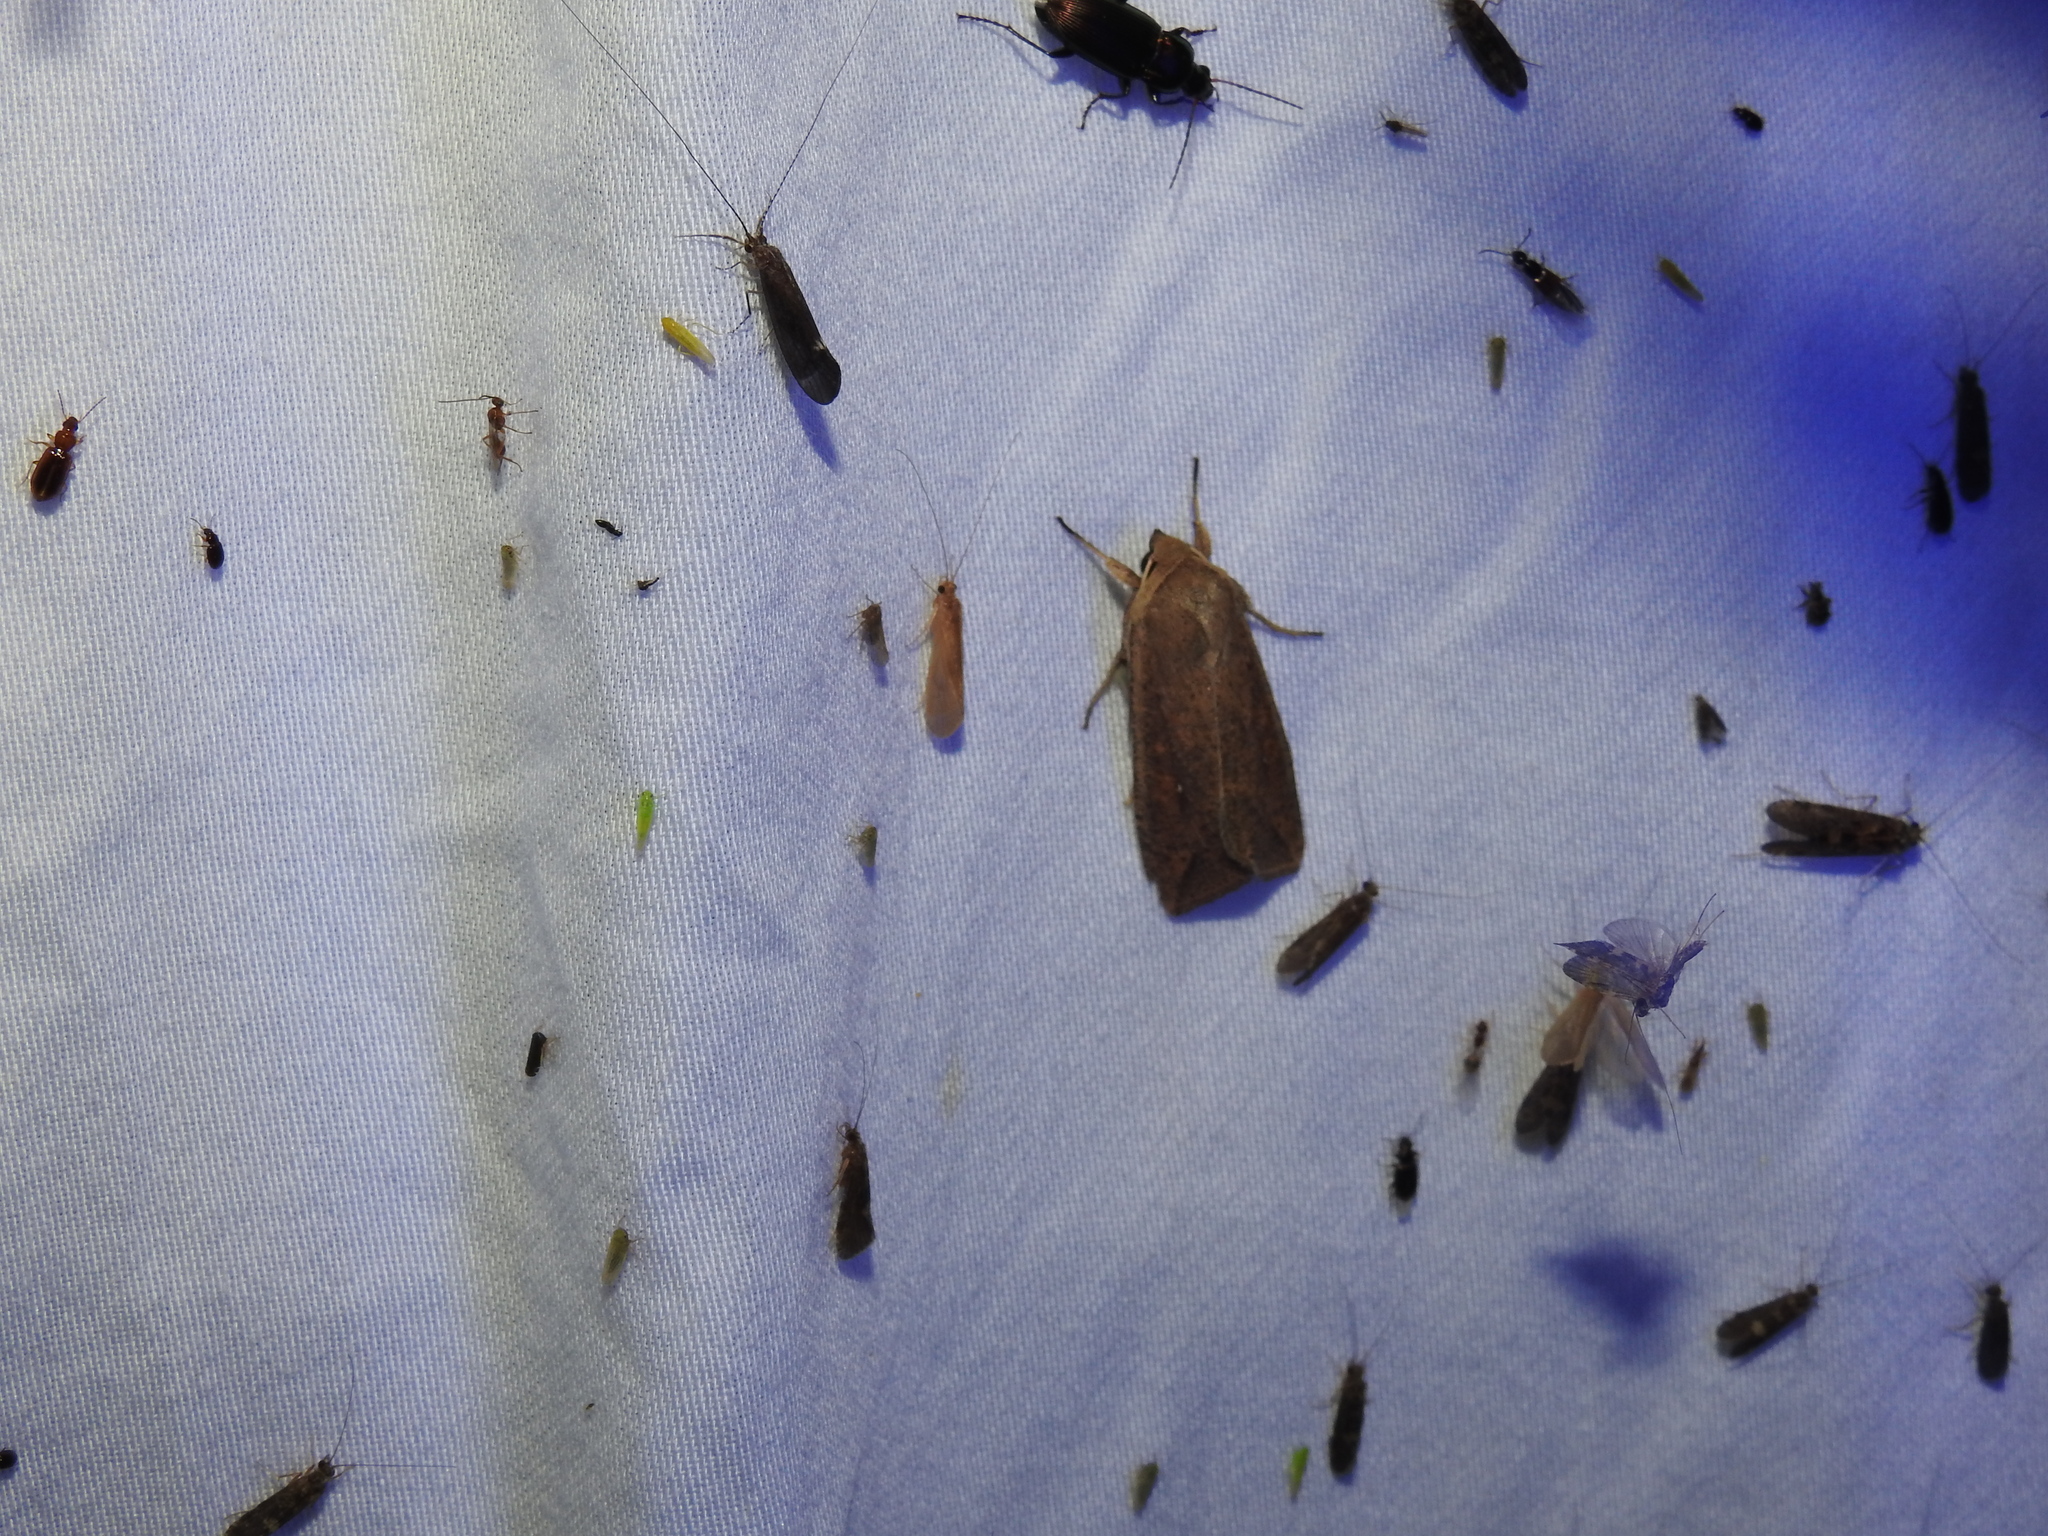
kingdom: Animalia
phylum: Arthropoda
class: Insecta
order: Lepidoptera
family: Noctuidae
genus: Mythimna
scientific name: Mythimna unipuncta
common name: White-speck
